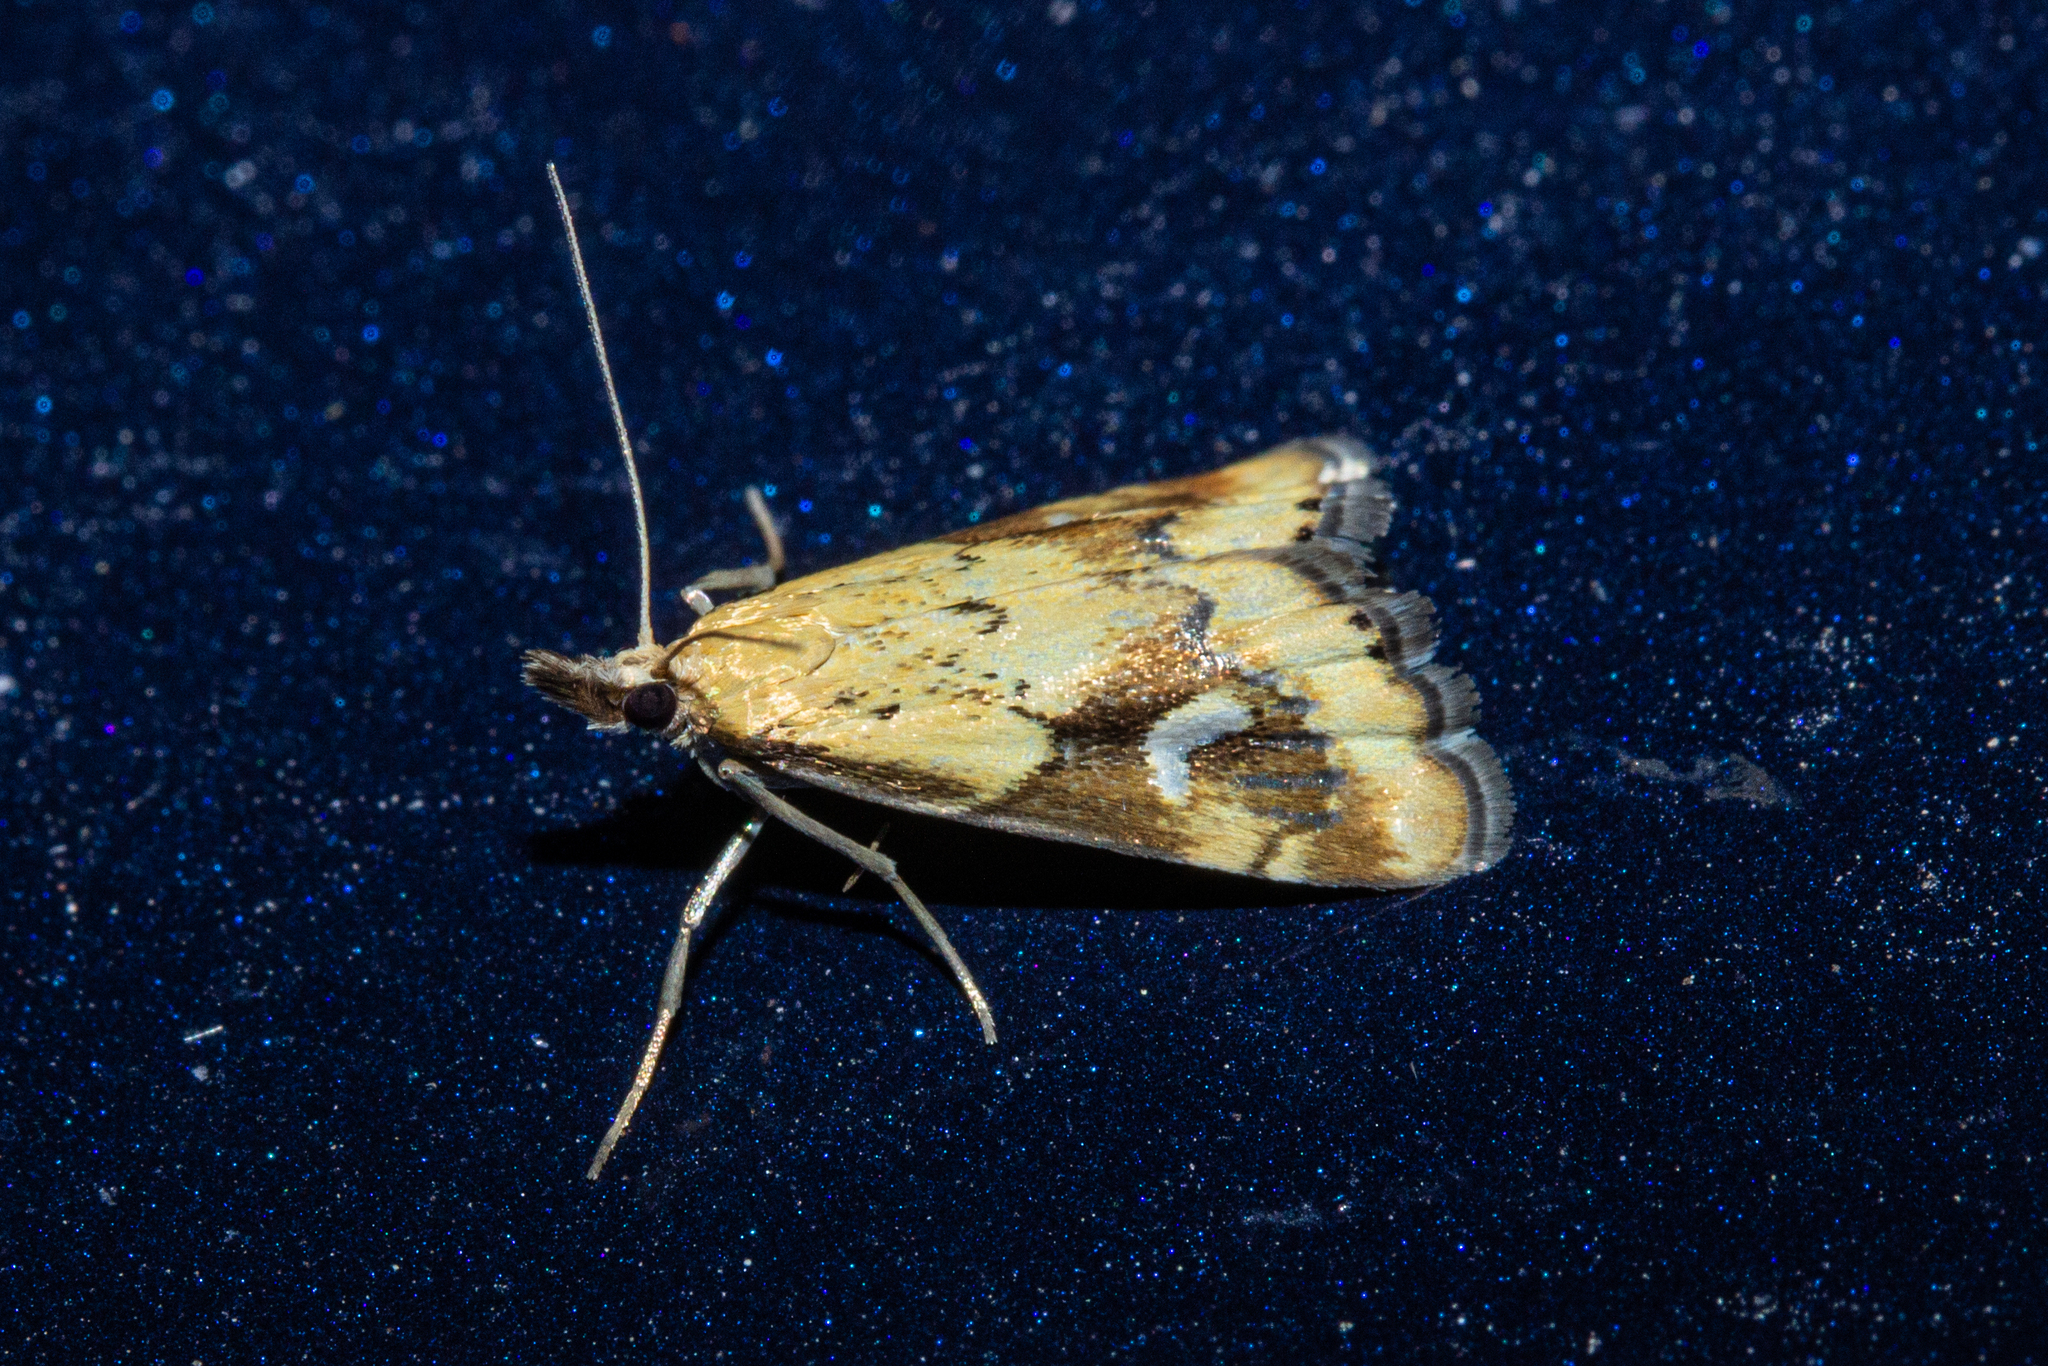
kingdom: Animalia
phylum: Arthropoda
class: Insecta
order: Lepidoptera
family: Crambidae
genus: Glaucocharis
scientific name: Glaucocharis lepidella
